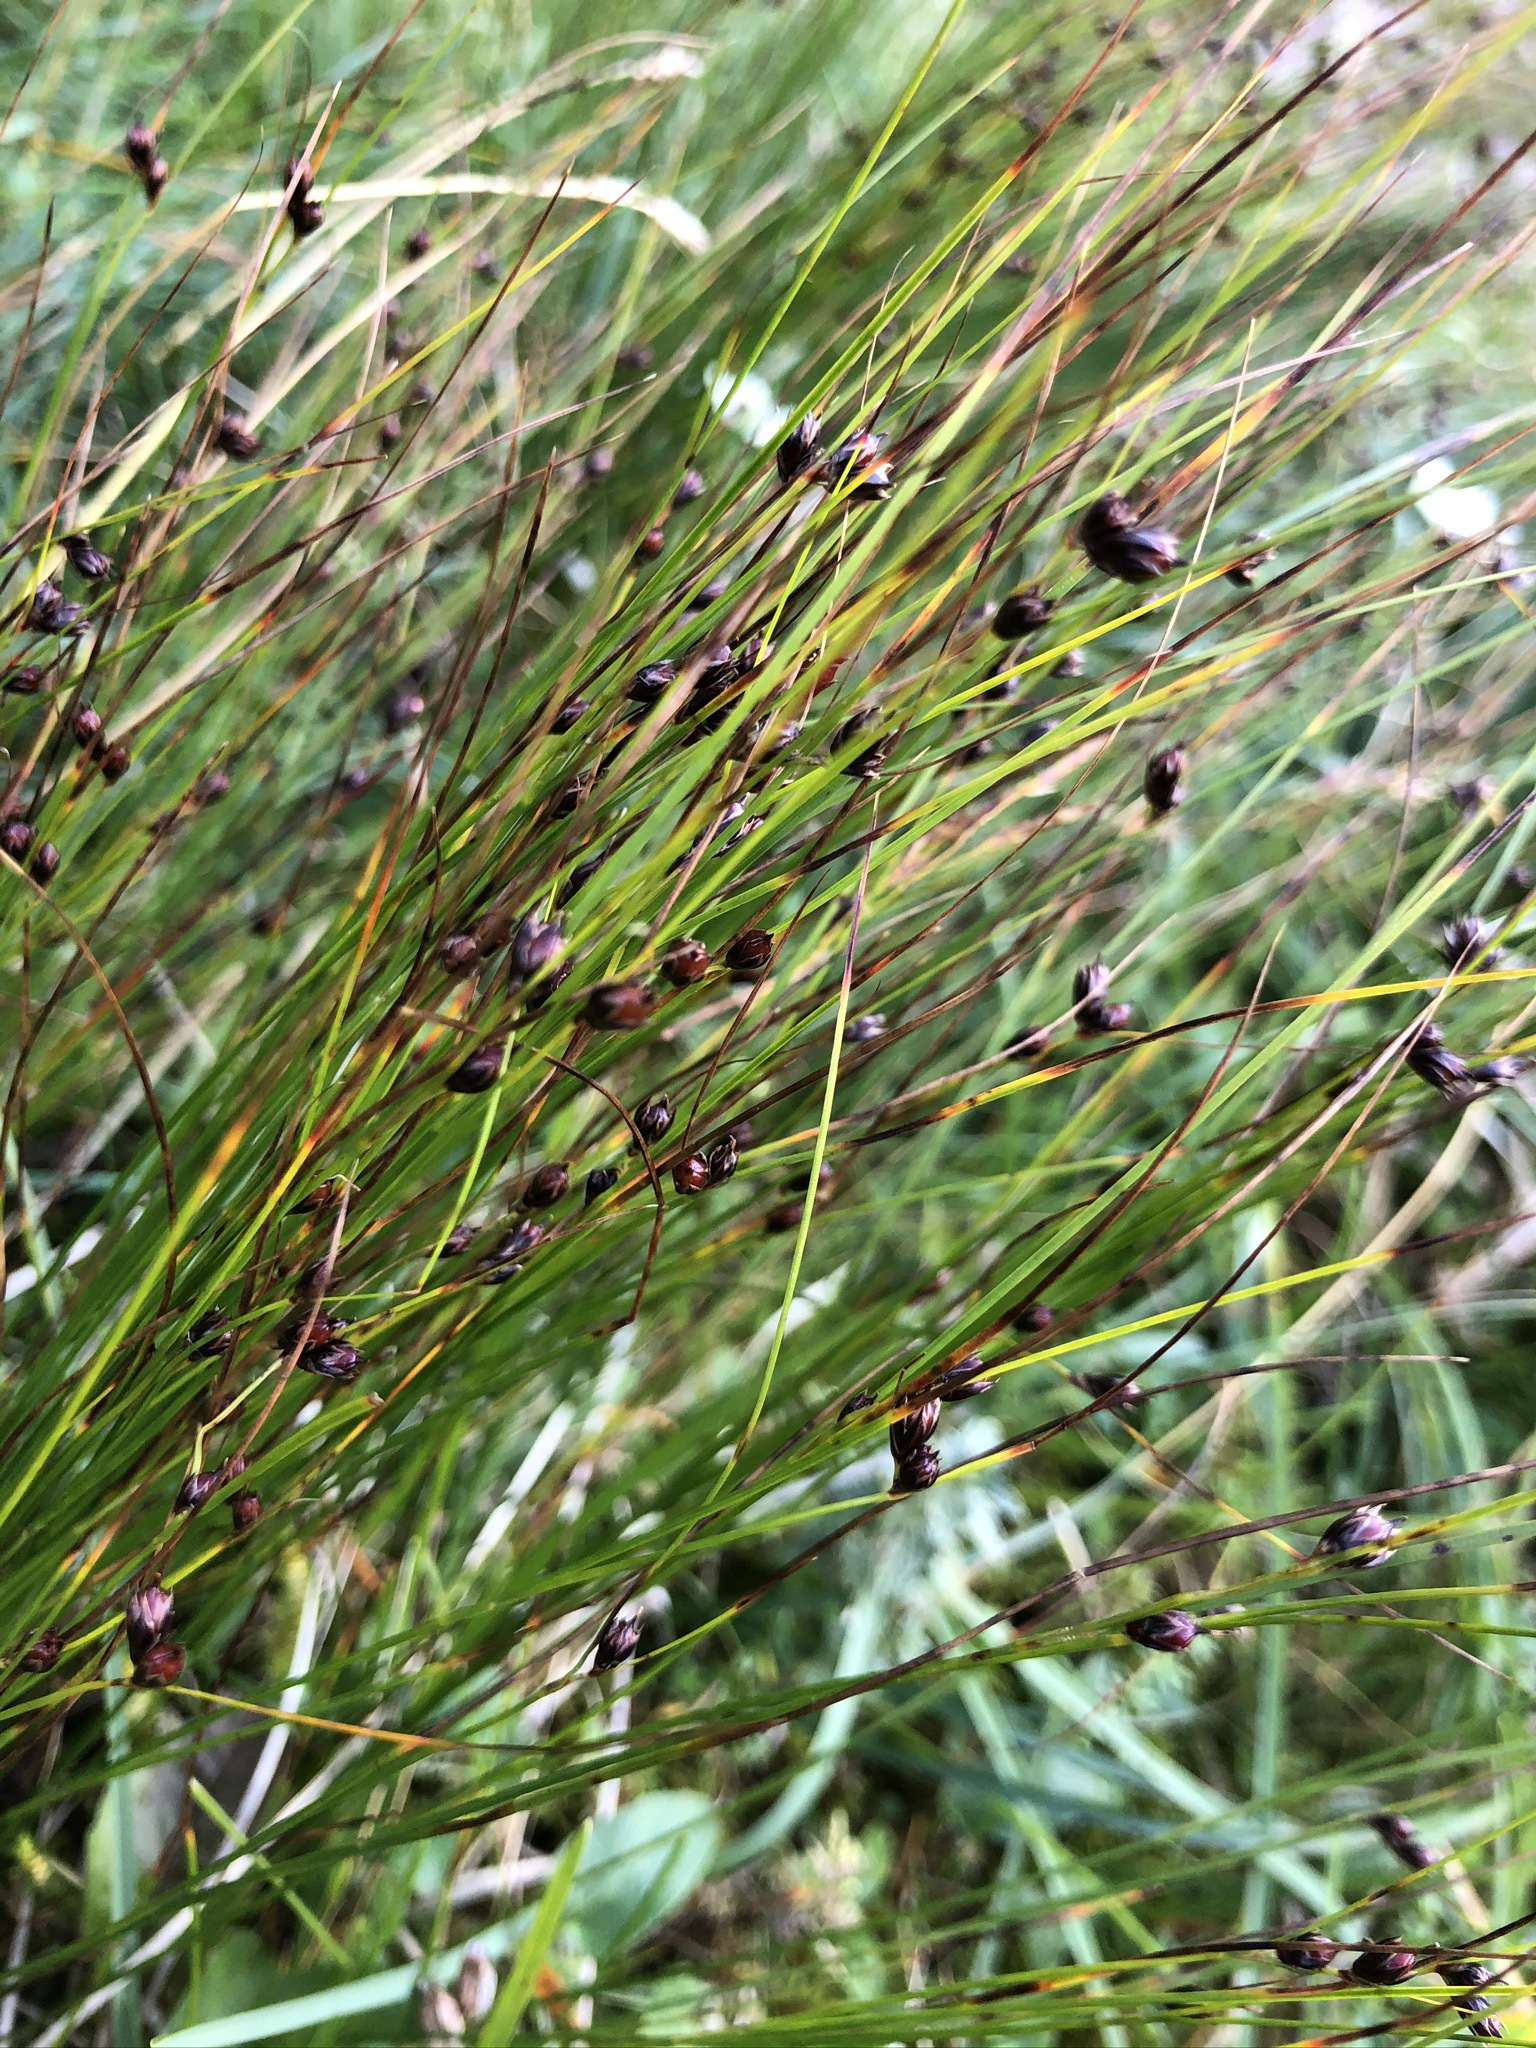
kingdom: Plantae
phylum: Tracheophyta
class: Liliopsida
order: Poales
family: Juncaceae
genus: Oreojuncus
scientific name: Oreojuncus trifidus
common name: Highland rush
